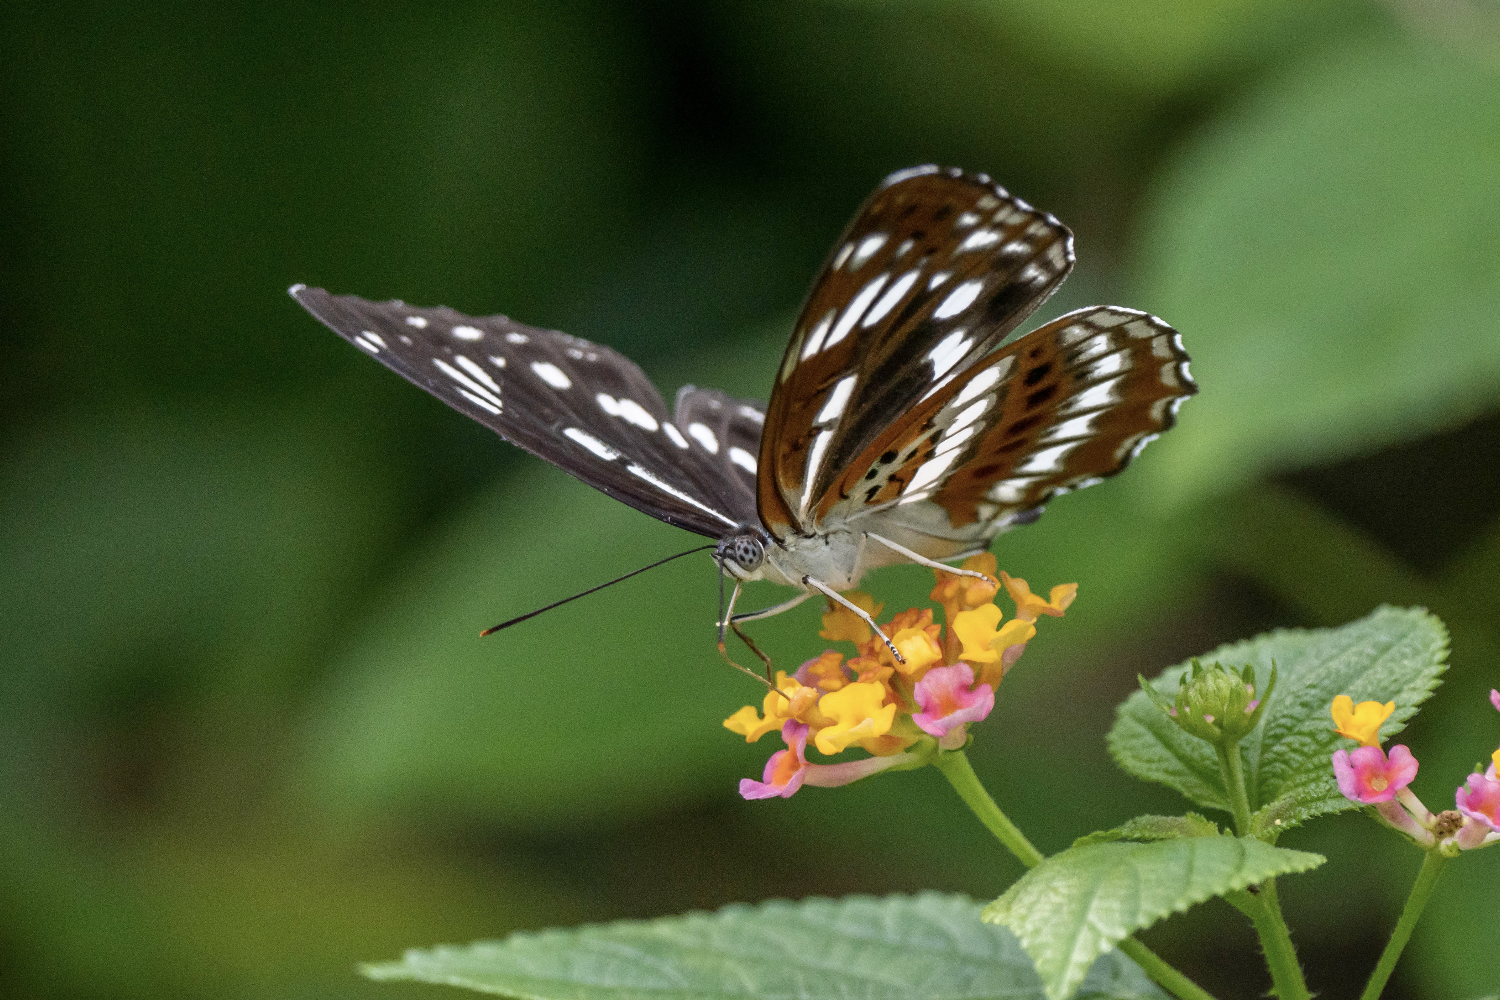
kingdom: Animalia
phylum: Arthropoda
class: Insecta
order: Lepidoptera
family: Nymphalidae
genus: Limenitis
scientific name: Limenitis sulpitia
